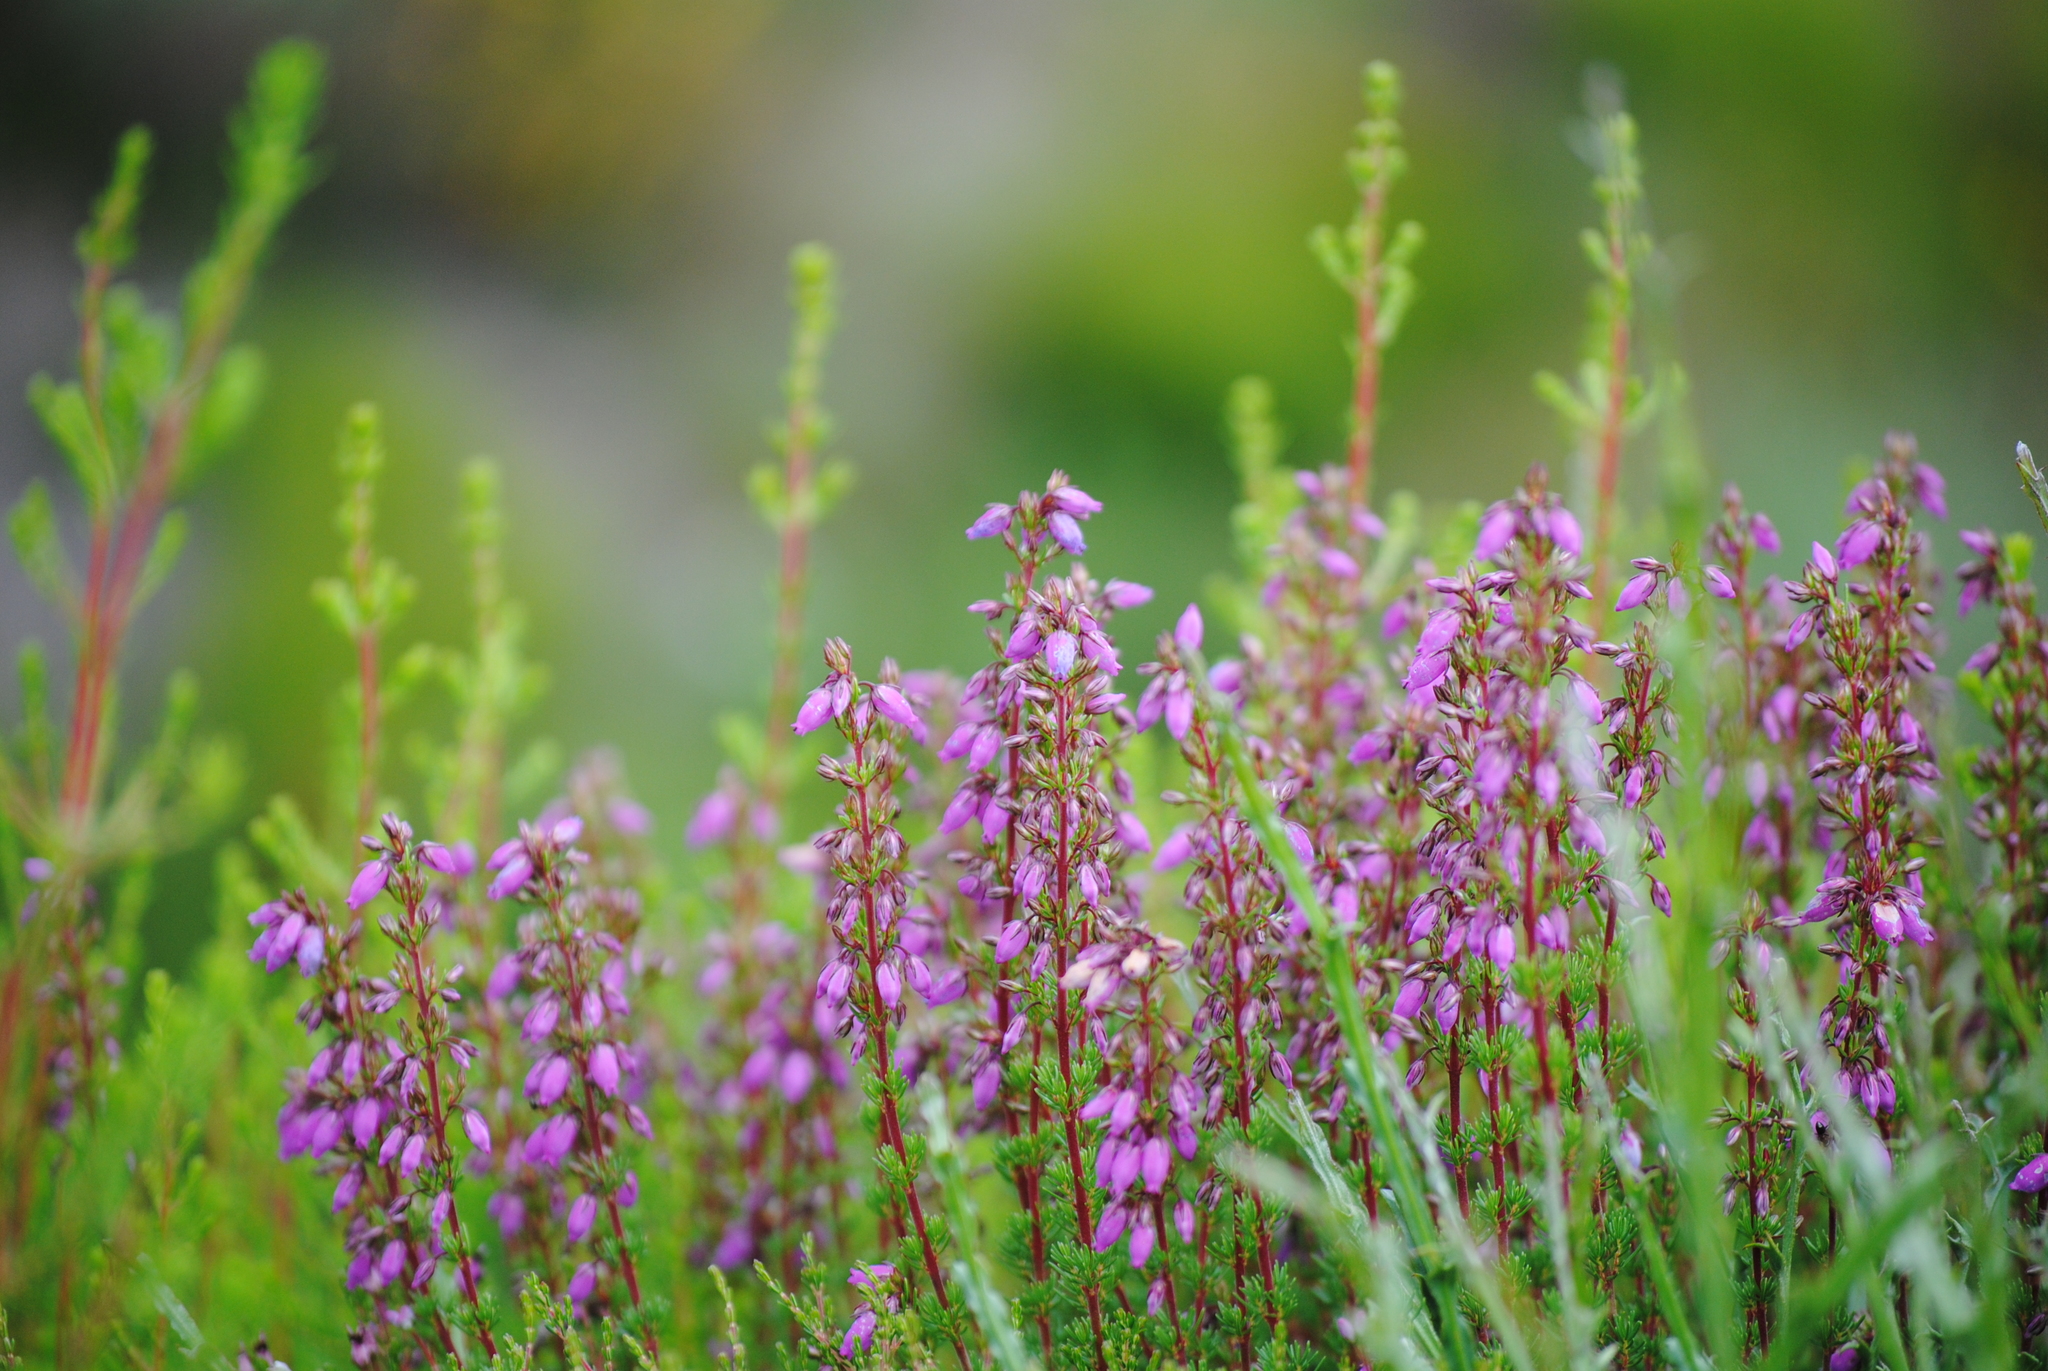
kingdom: Plantae
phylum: Tracheophyta
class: Magnoliopsida
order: Ericales
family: Ericaceae
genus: Erica
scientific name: Erica cinerea
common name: Bell heather
